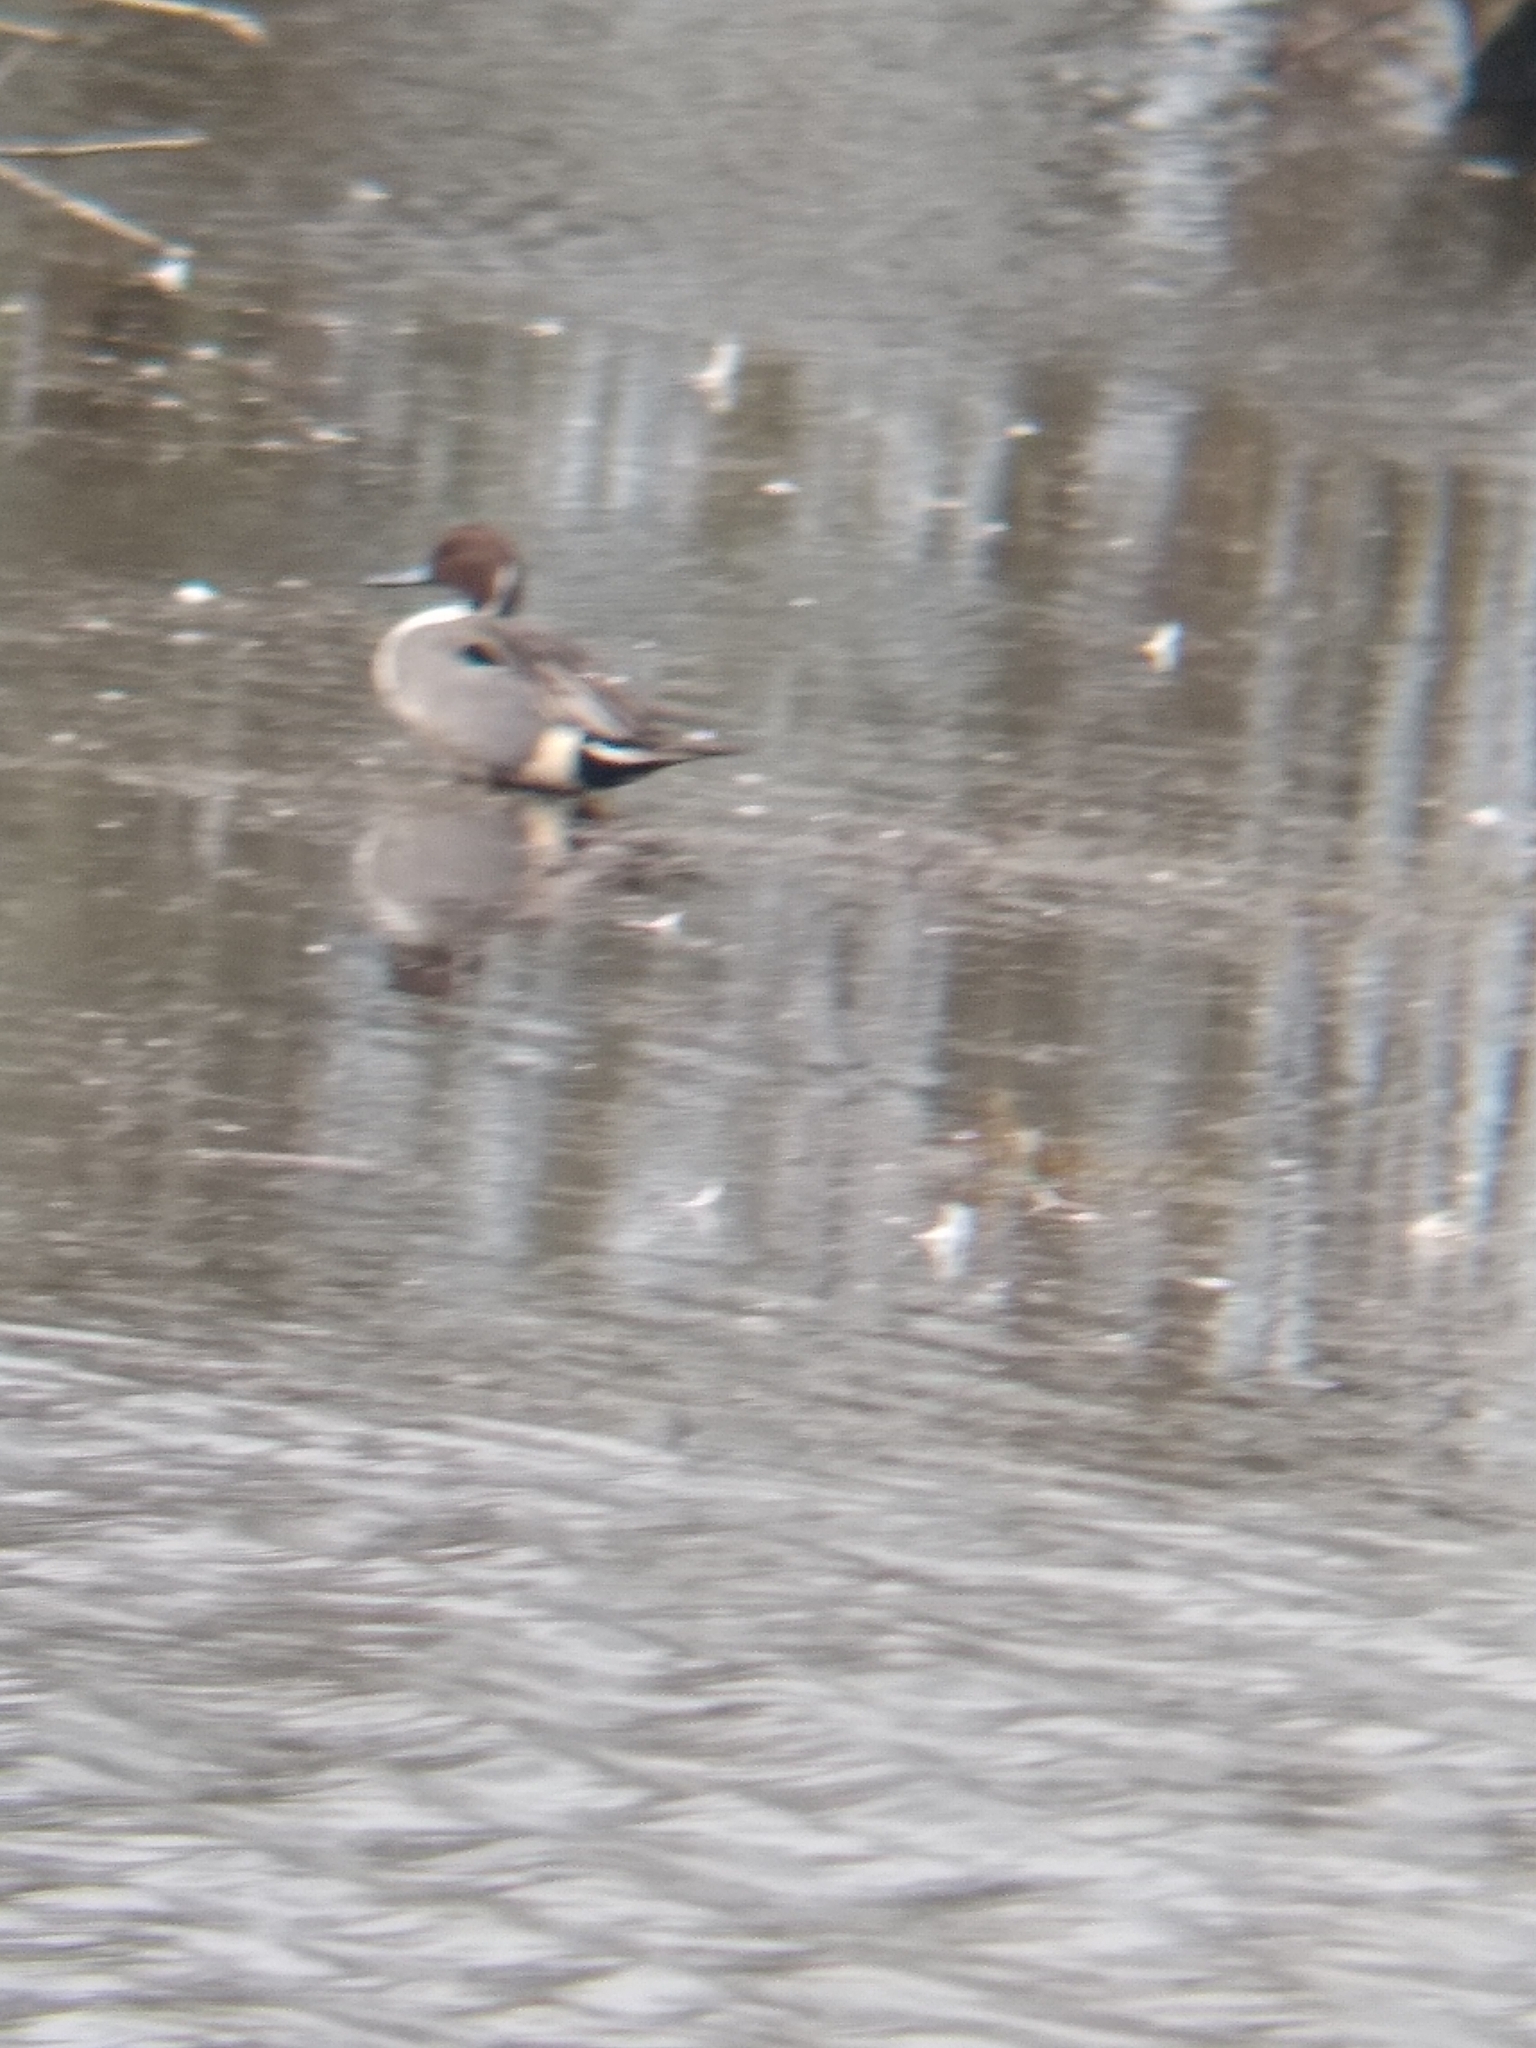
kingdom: Animalia
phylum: Chordata
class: Aves
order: Anseriformes
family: Anatidae
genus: Anas
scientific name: Anas acuta
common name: Northern pintail
